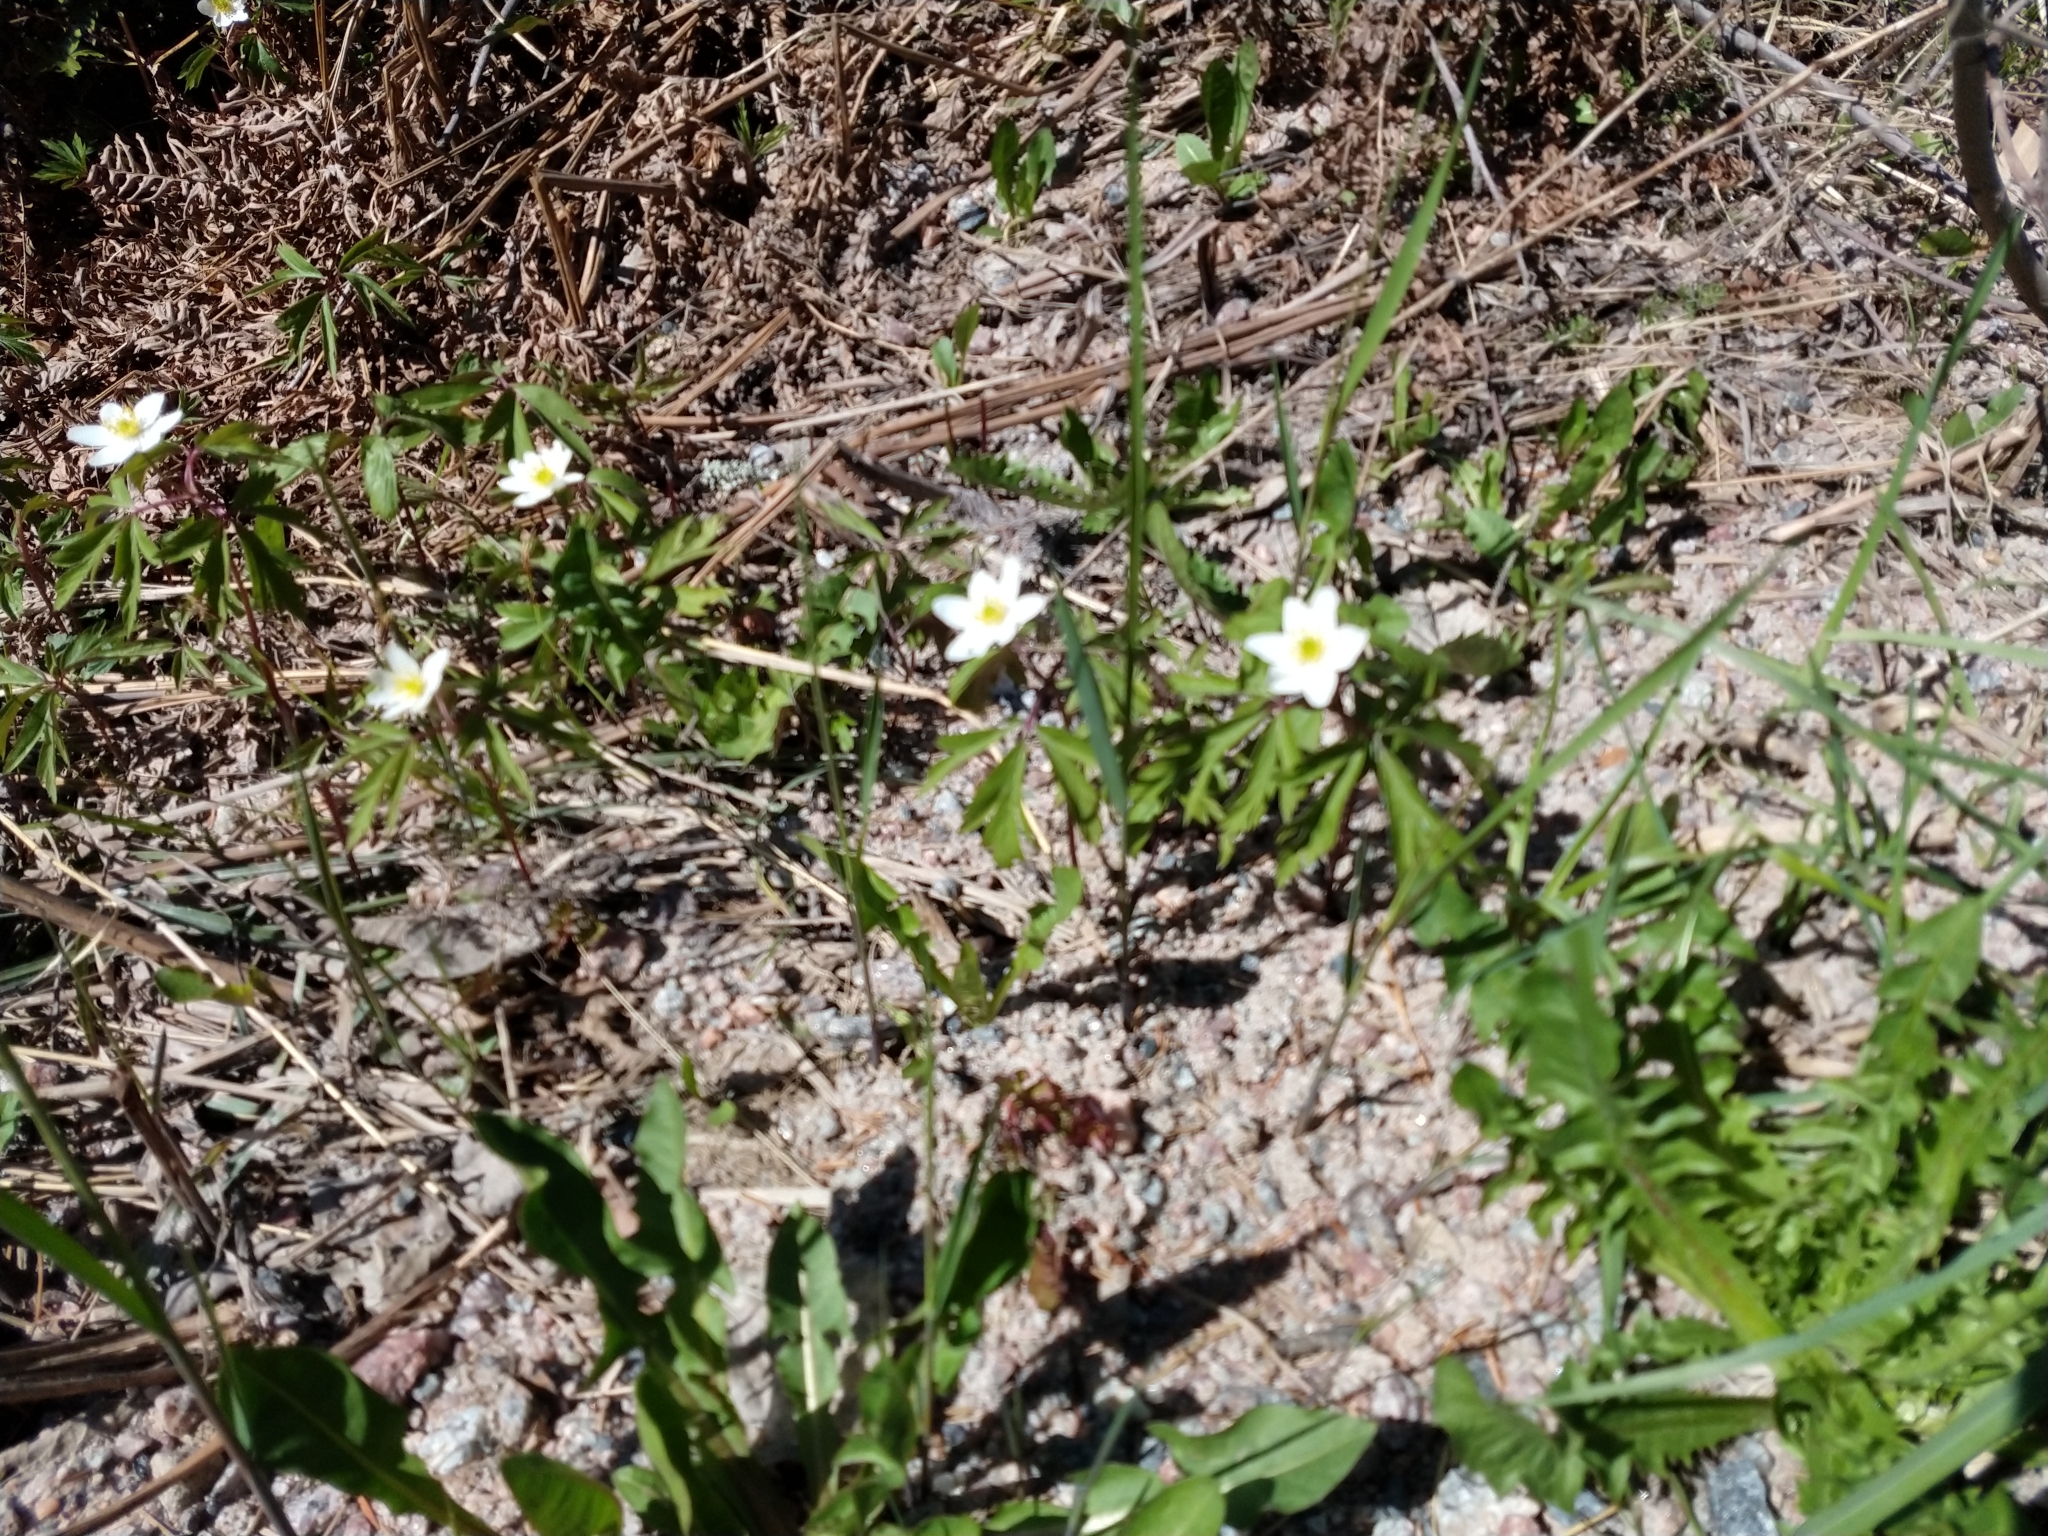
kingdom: Plantae
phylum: Tracheophyta
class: Magnoliopsida
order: Ranunculales
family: Ranunculaceae
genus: Anemone
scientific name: Anemone nemorosa
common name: Wood anemone
